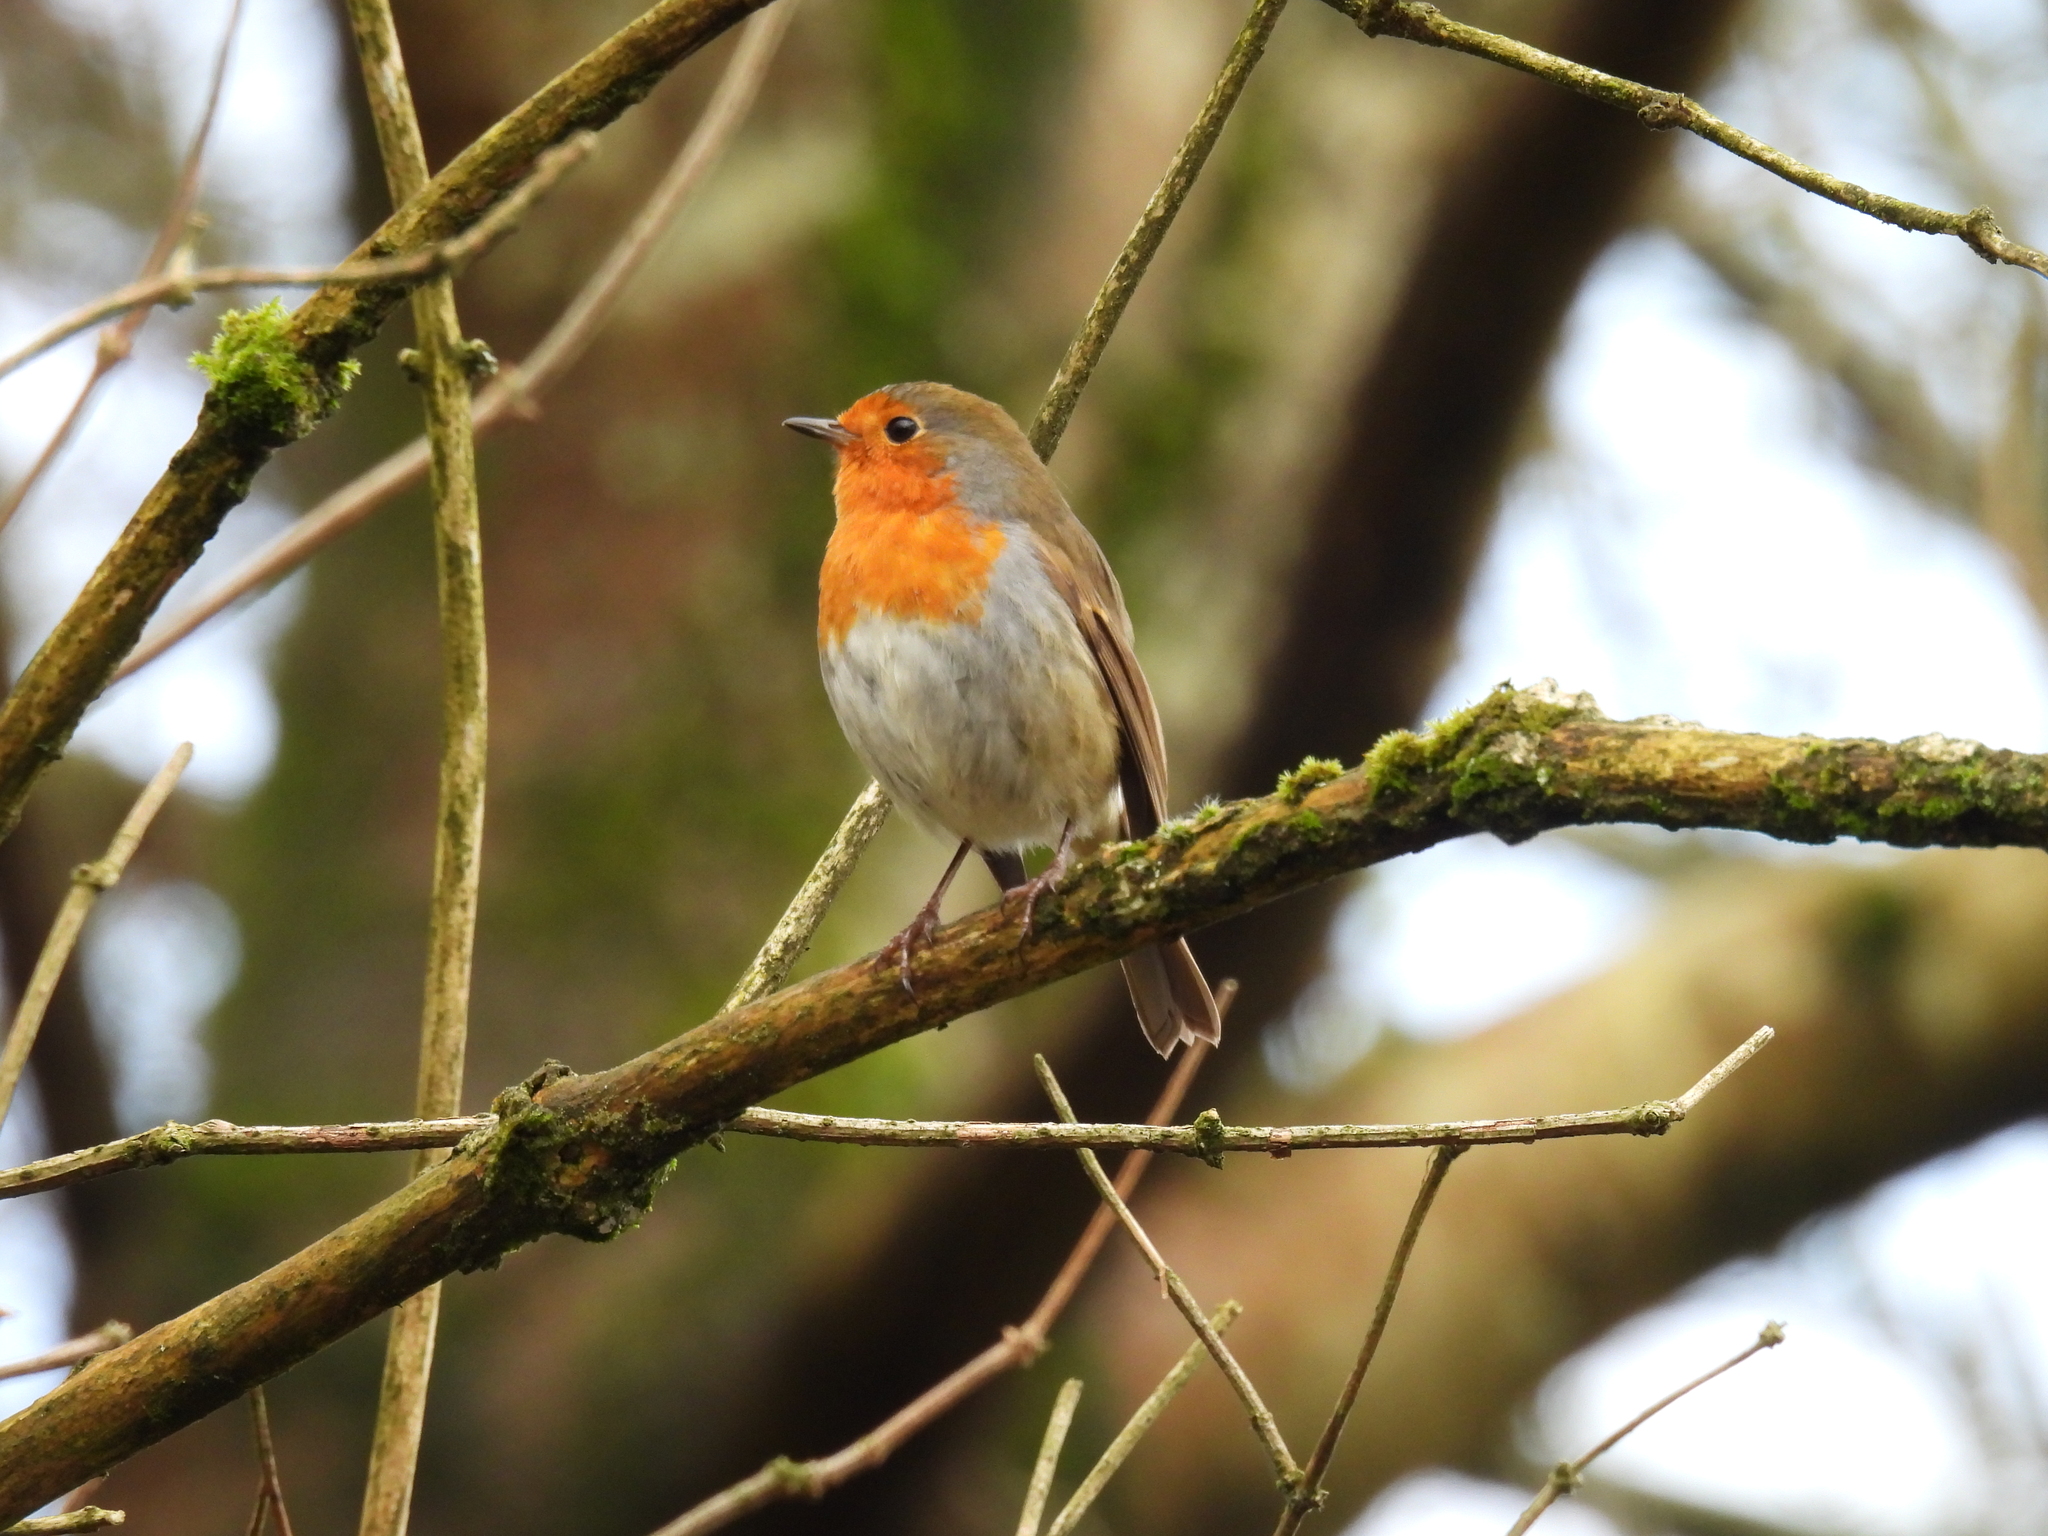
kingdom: Animalia
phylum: Chordata
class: Aves
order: Passeriformes
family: Muscicapidae
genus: Erithacus
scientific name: Erithacus rubecula
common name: European robin
